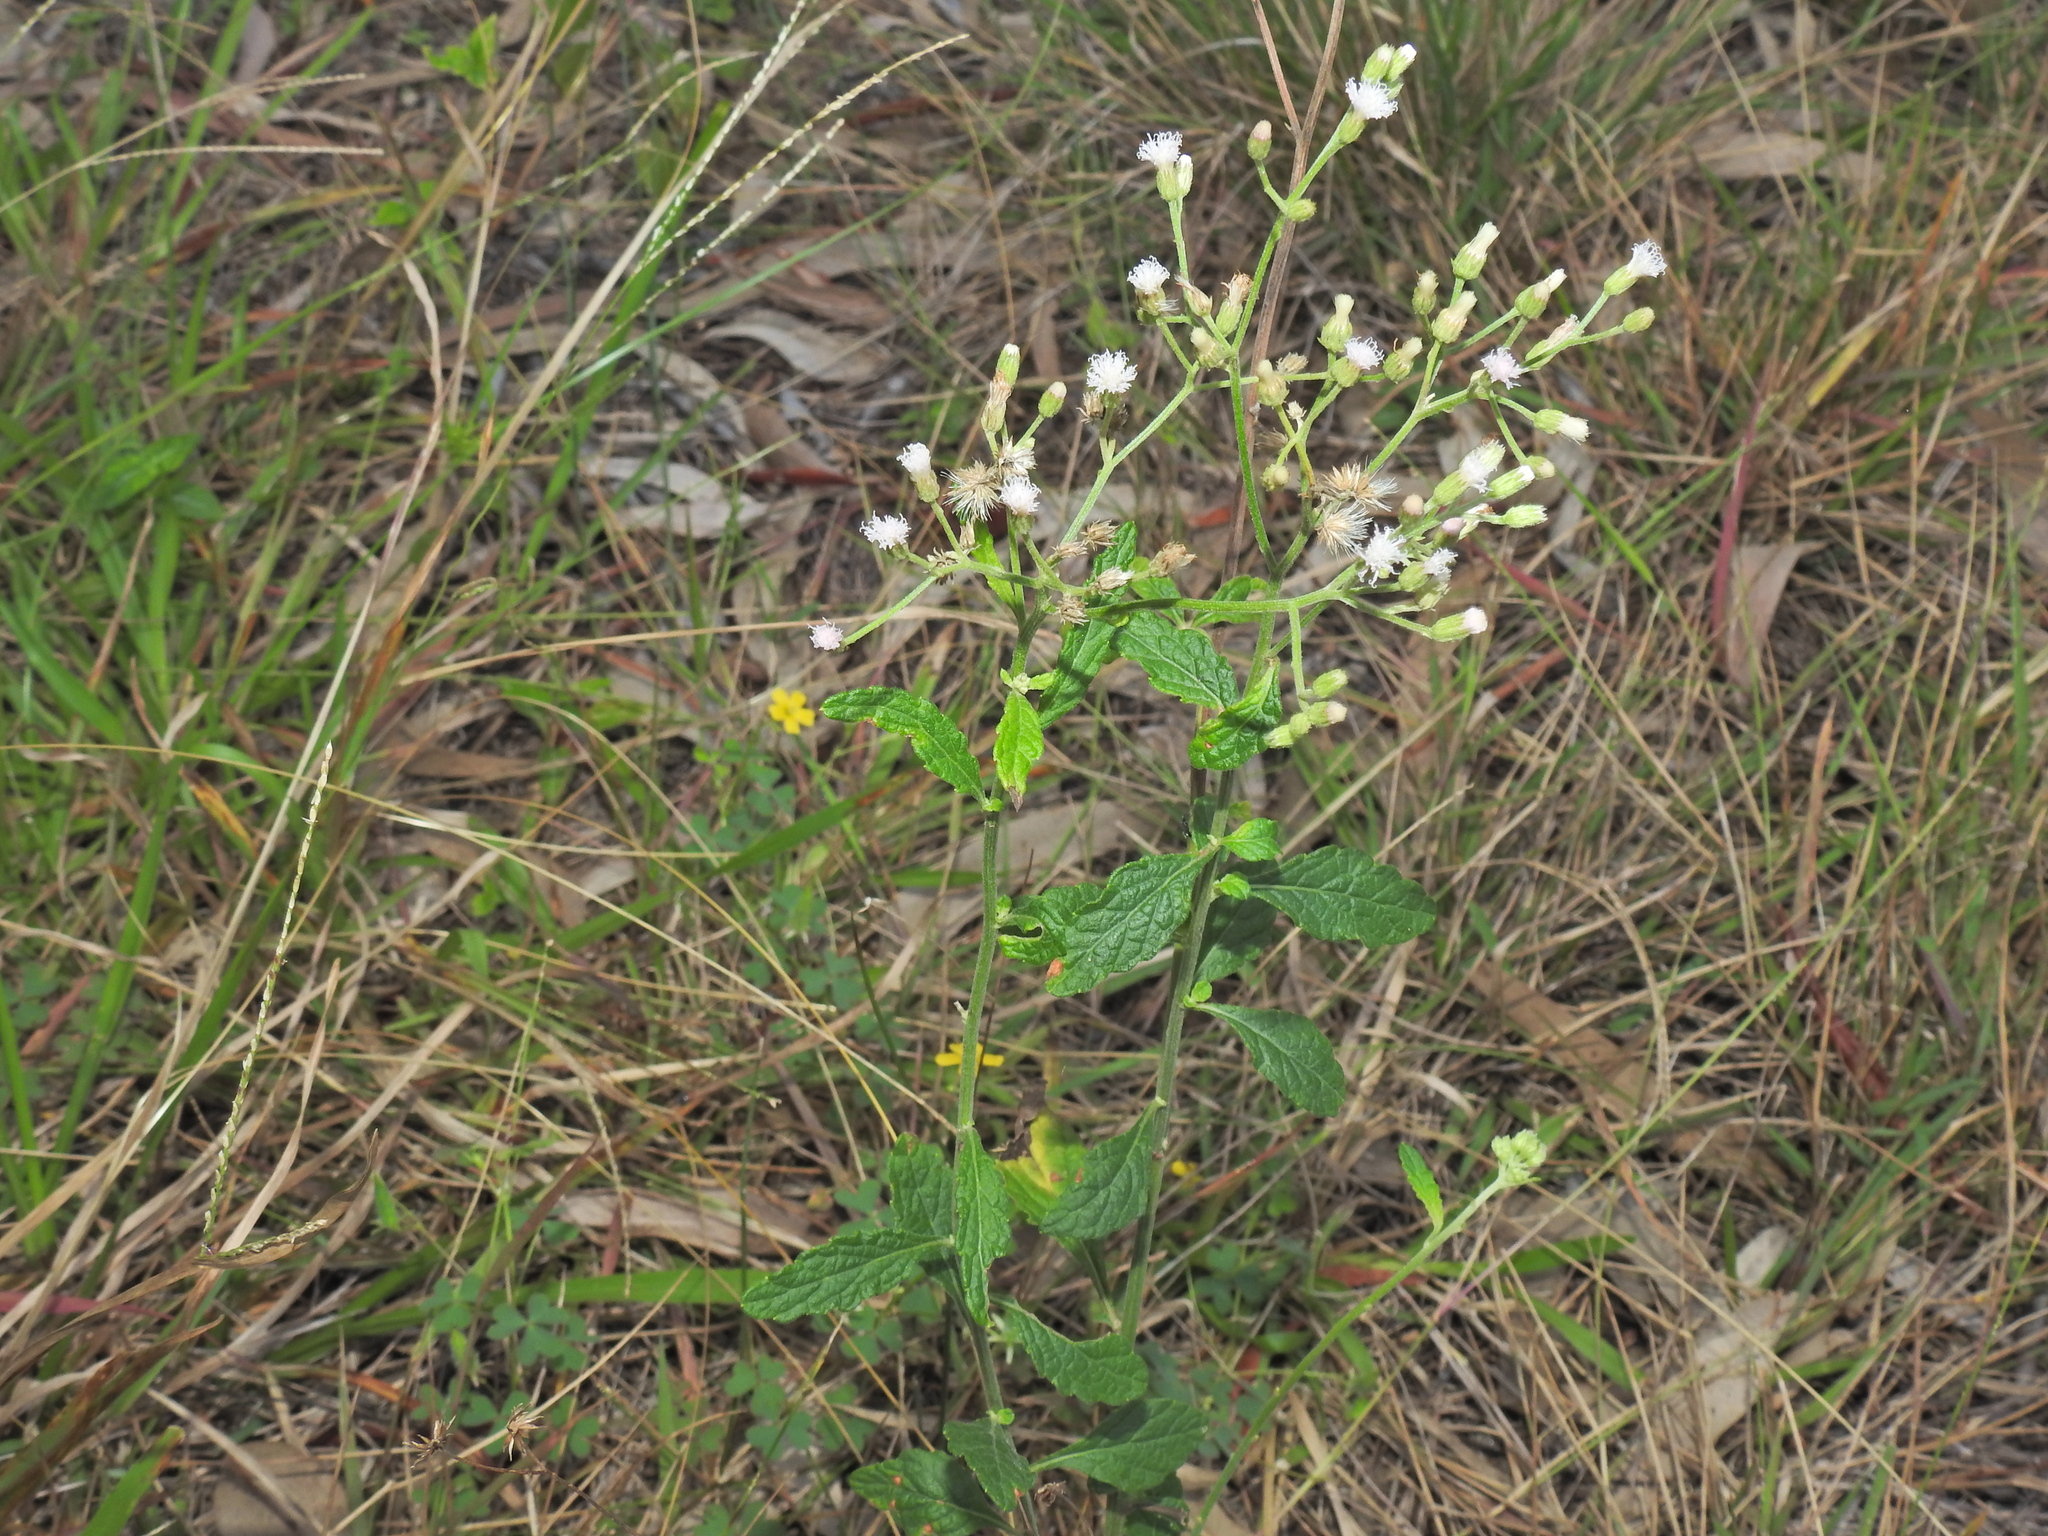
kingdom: Plantae
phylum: Tracheophyta
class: Magnoliopsida
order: Asterales
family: Asteraceae
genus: Cyanthillium
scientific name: Cyanthillium cinereum
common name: Little ironweed
